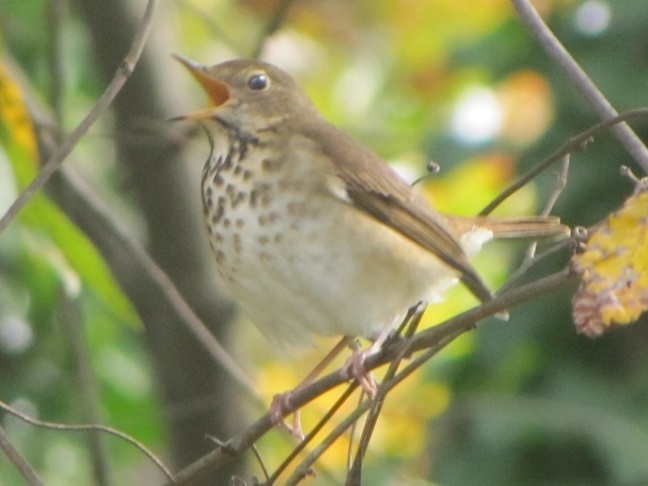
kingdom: Animalia
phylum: Chordata
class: Aves
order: Passeriformes
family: Turdidae
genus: Catharus
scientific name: Catharus guttatus
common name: Hermit thrush
